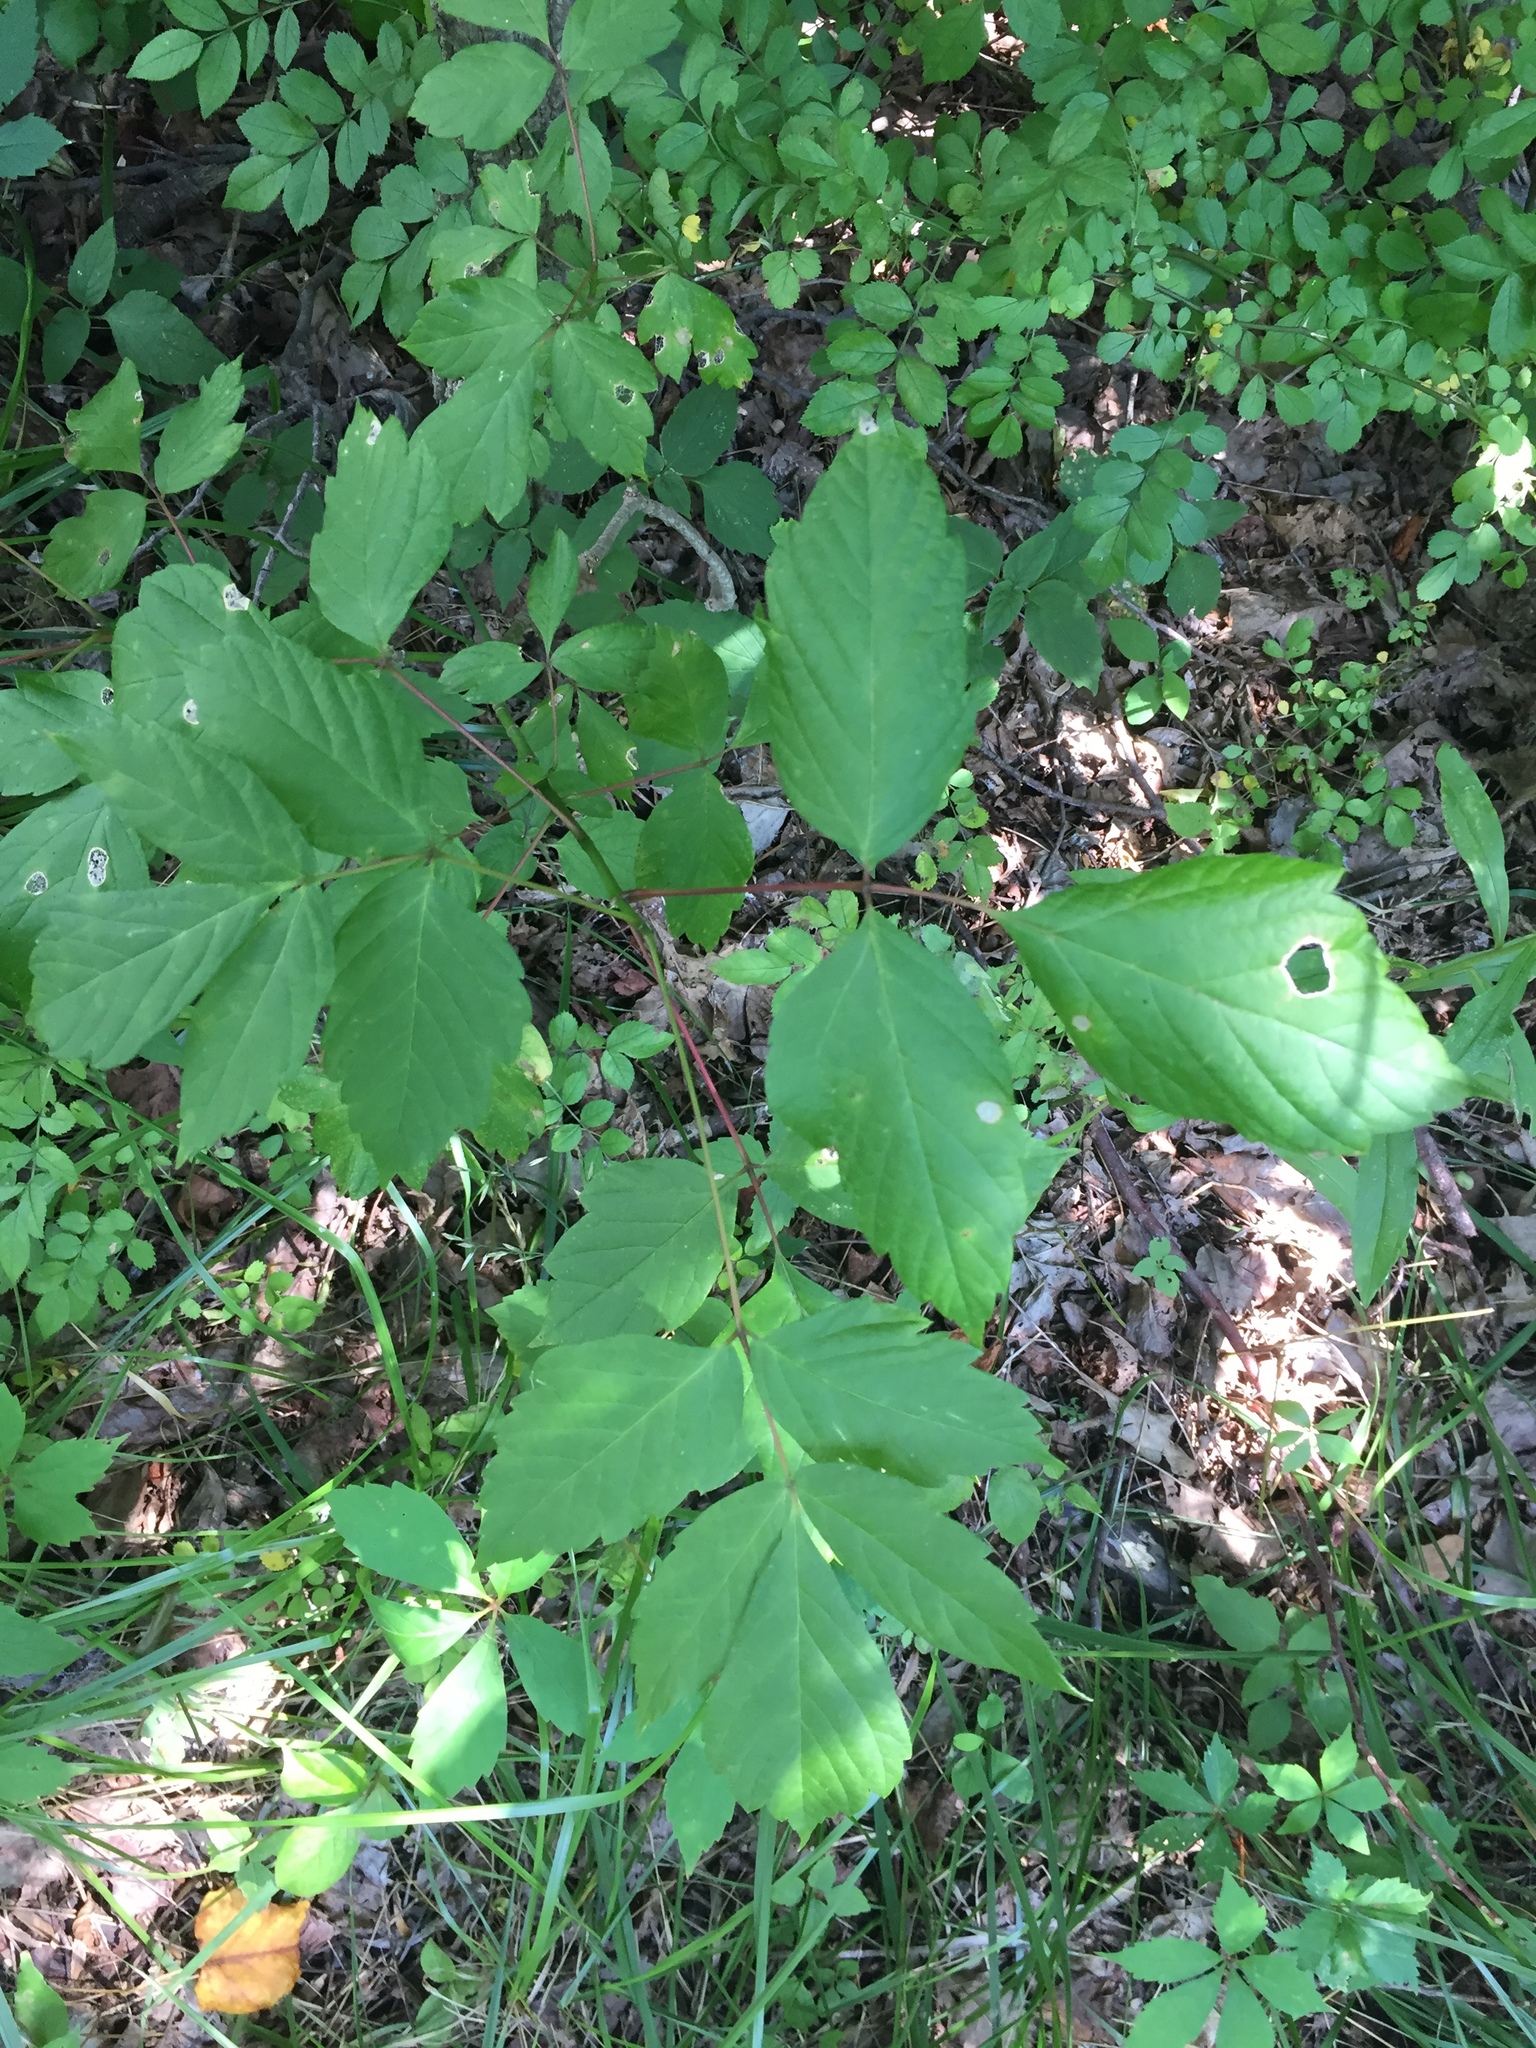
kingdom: Plantae
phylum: Tracheophyta
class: Magnoliopsida
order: Sapindales
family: Sapindaceae
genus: Acer
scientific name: Acer negundo
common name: Ashleaf maple
